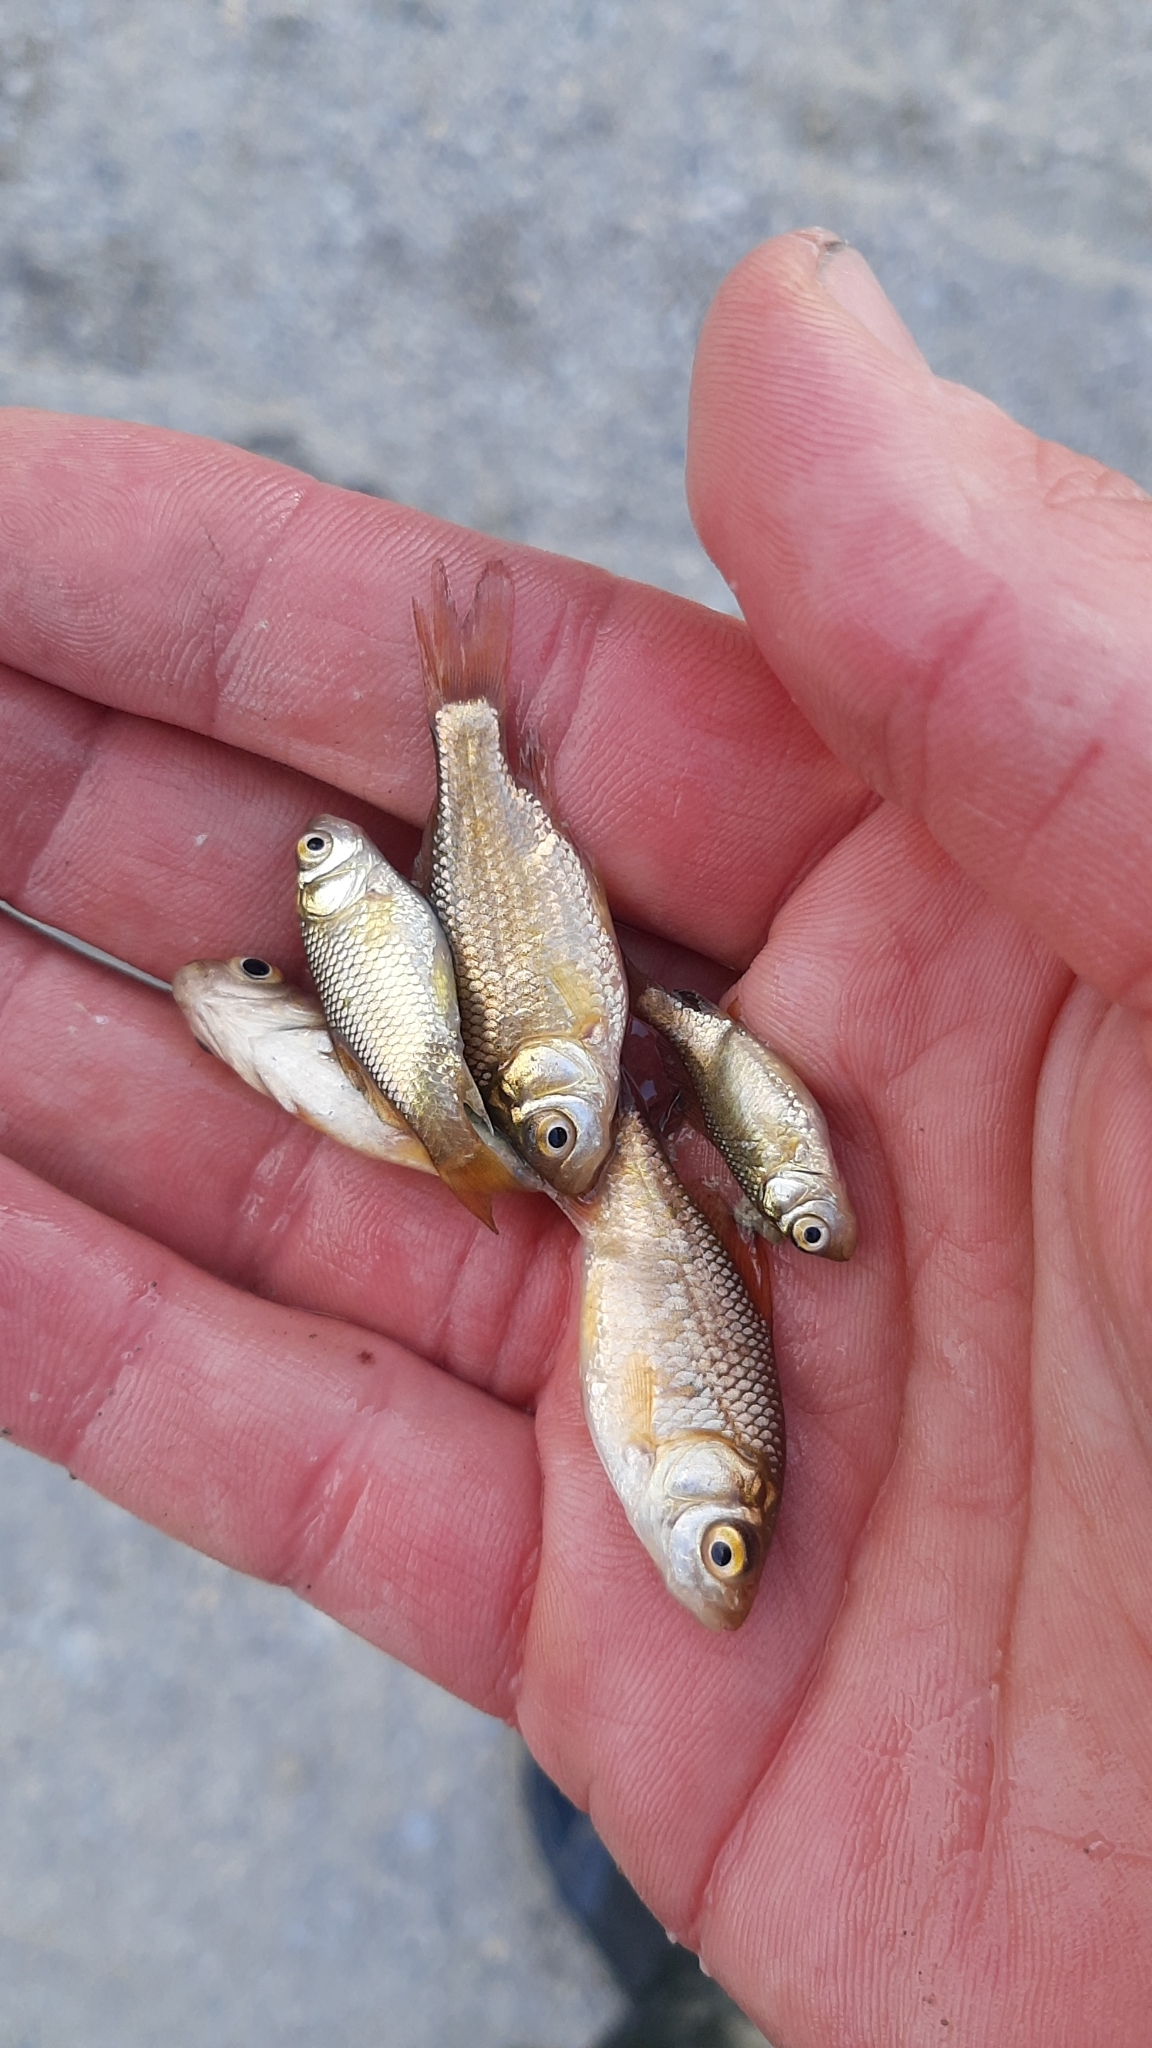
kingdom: Animalia
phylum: Chordata
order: Cypriniformes
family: Cyprinidae
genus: Carassius
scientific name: Carassius auratus
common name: Goldfish
